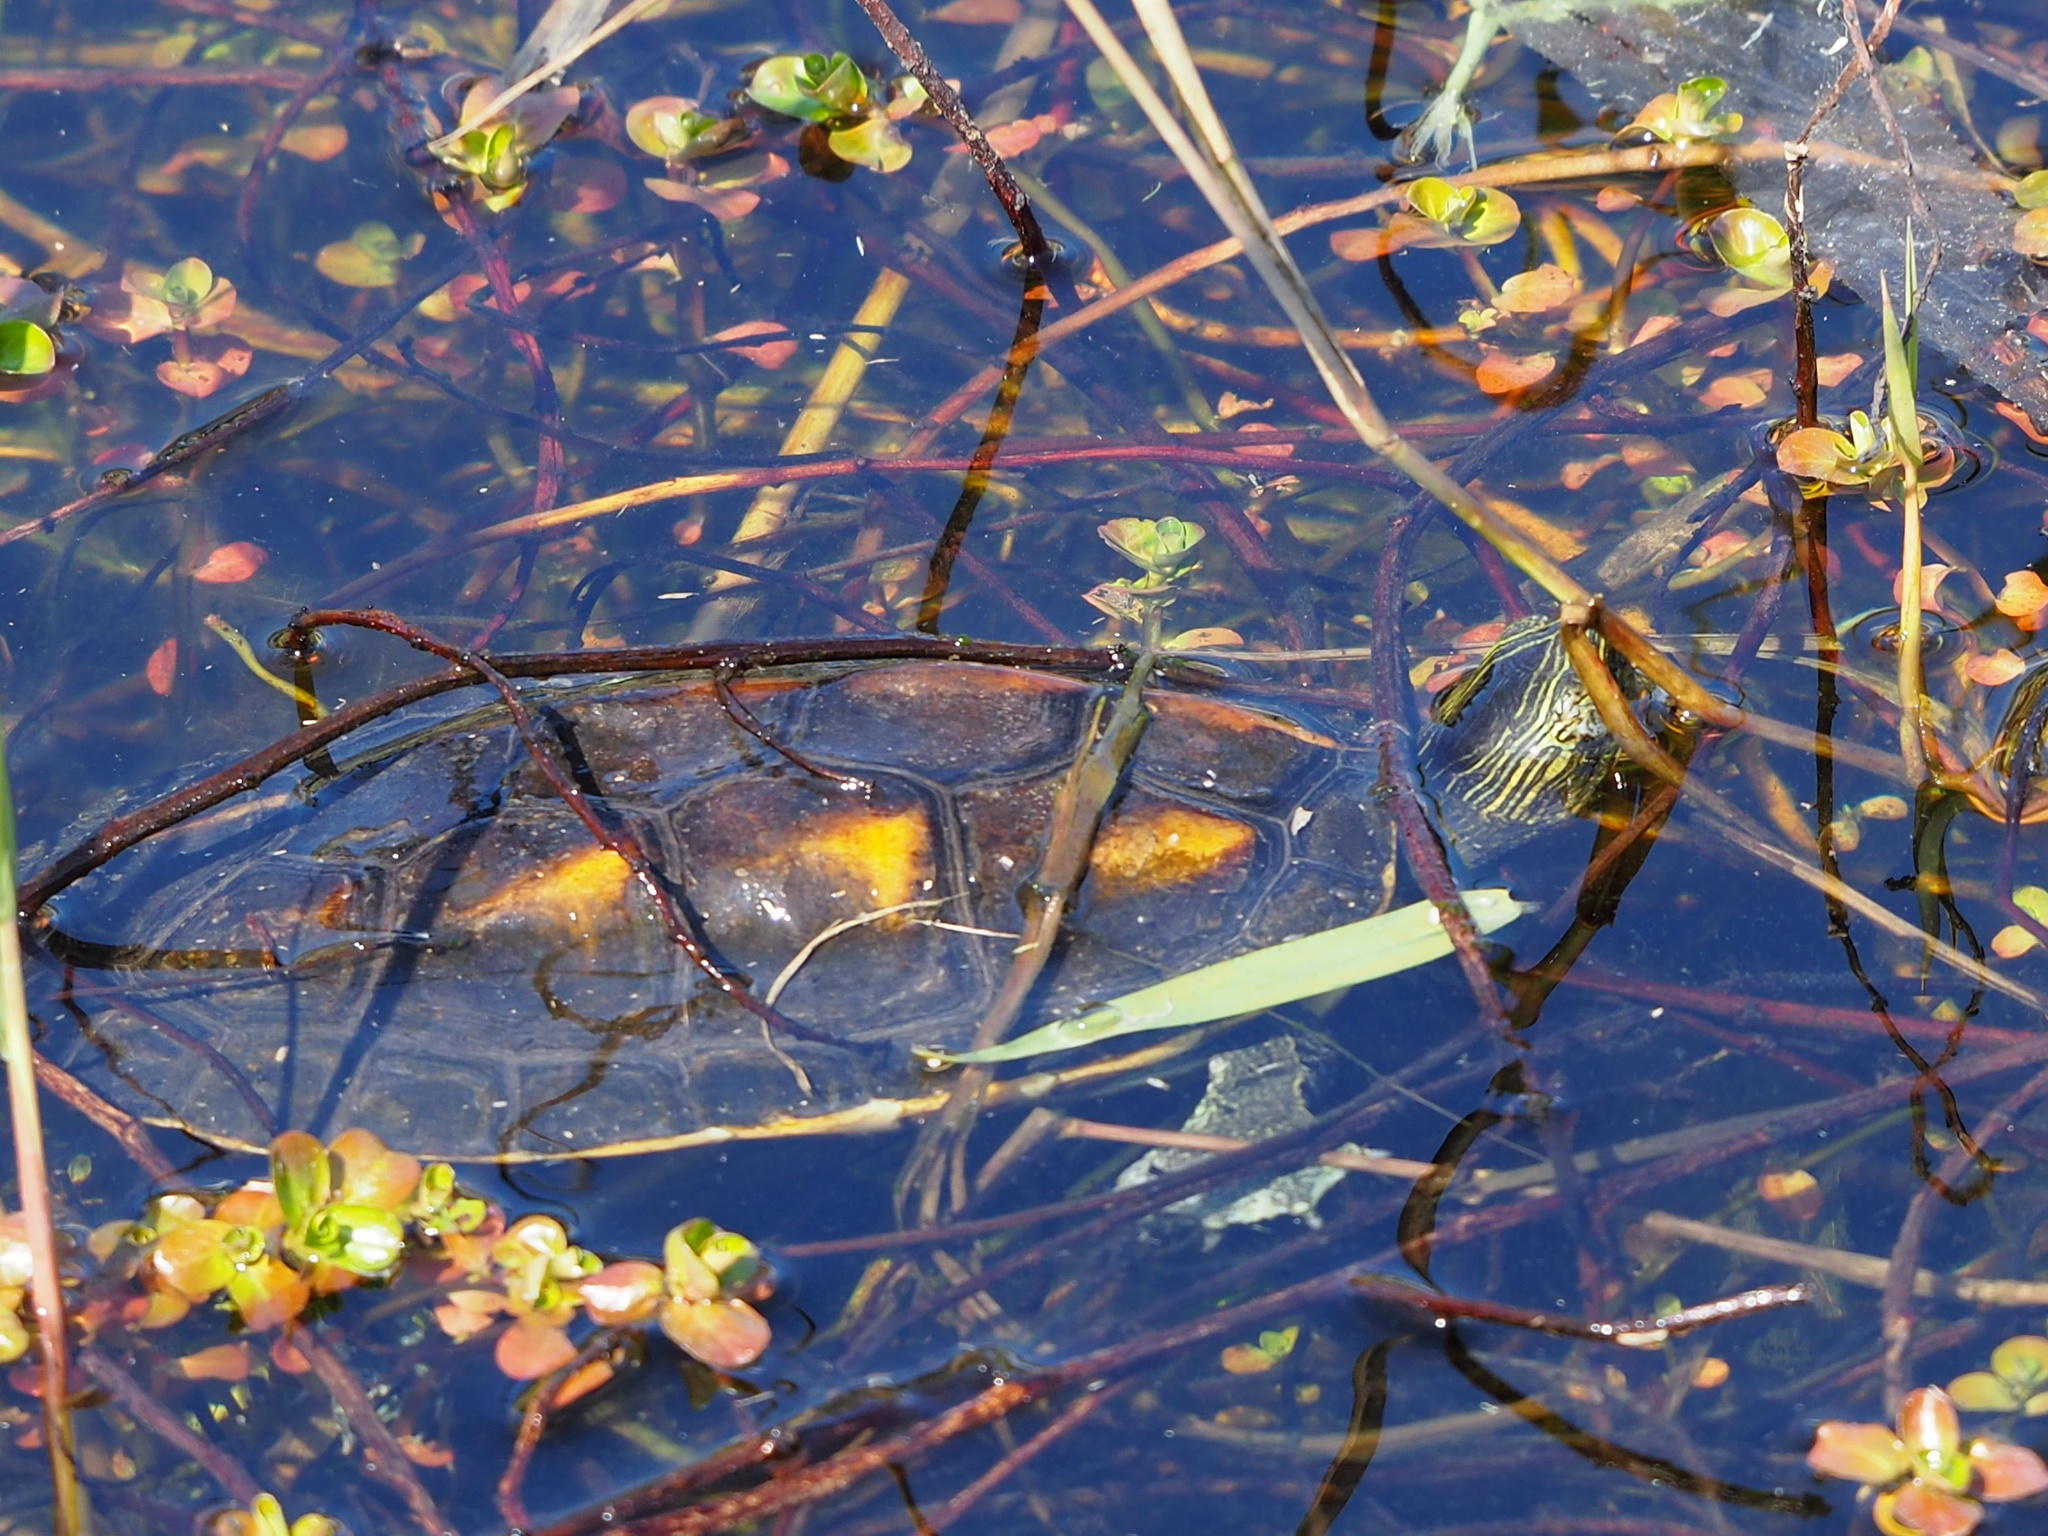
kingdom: Animalia
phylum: Chordata
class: Testudines
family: Geoemydidae
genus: Mauremys
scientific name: Mauremys sinensis
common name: Chinese stripe-necked turtle
